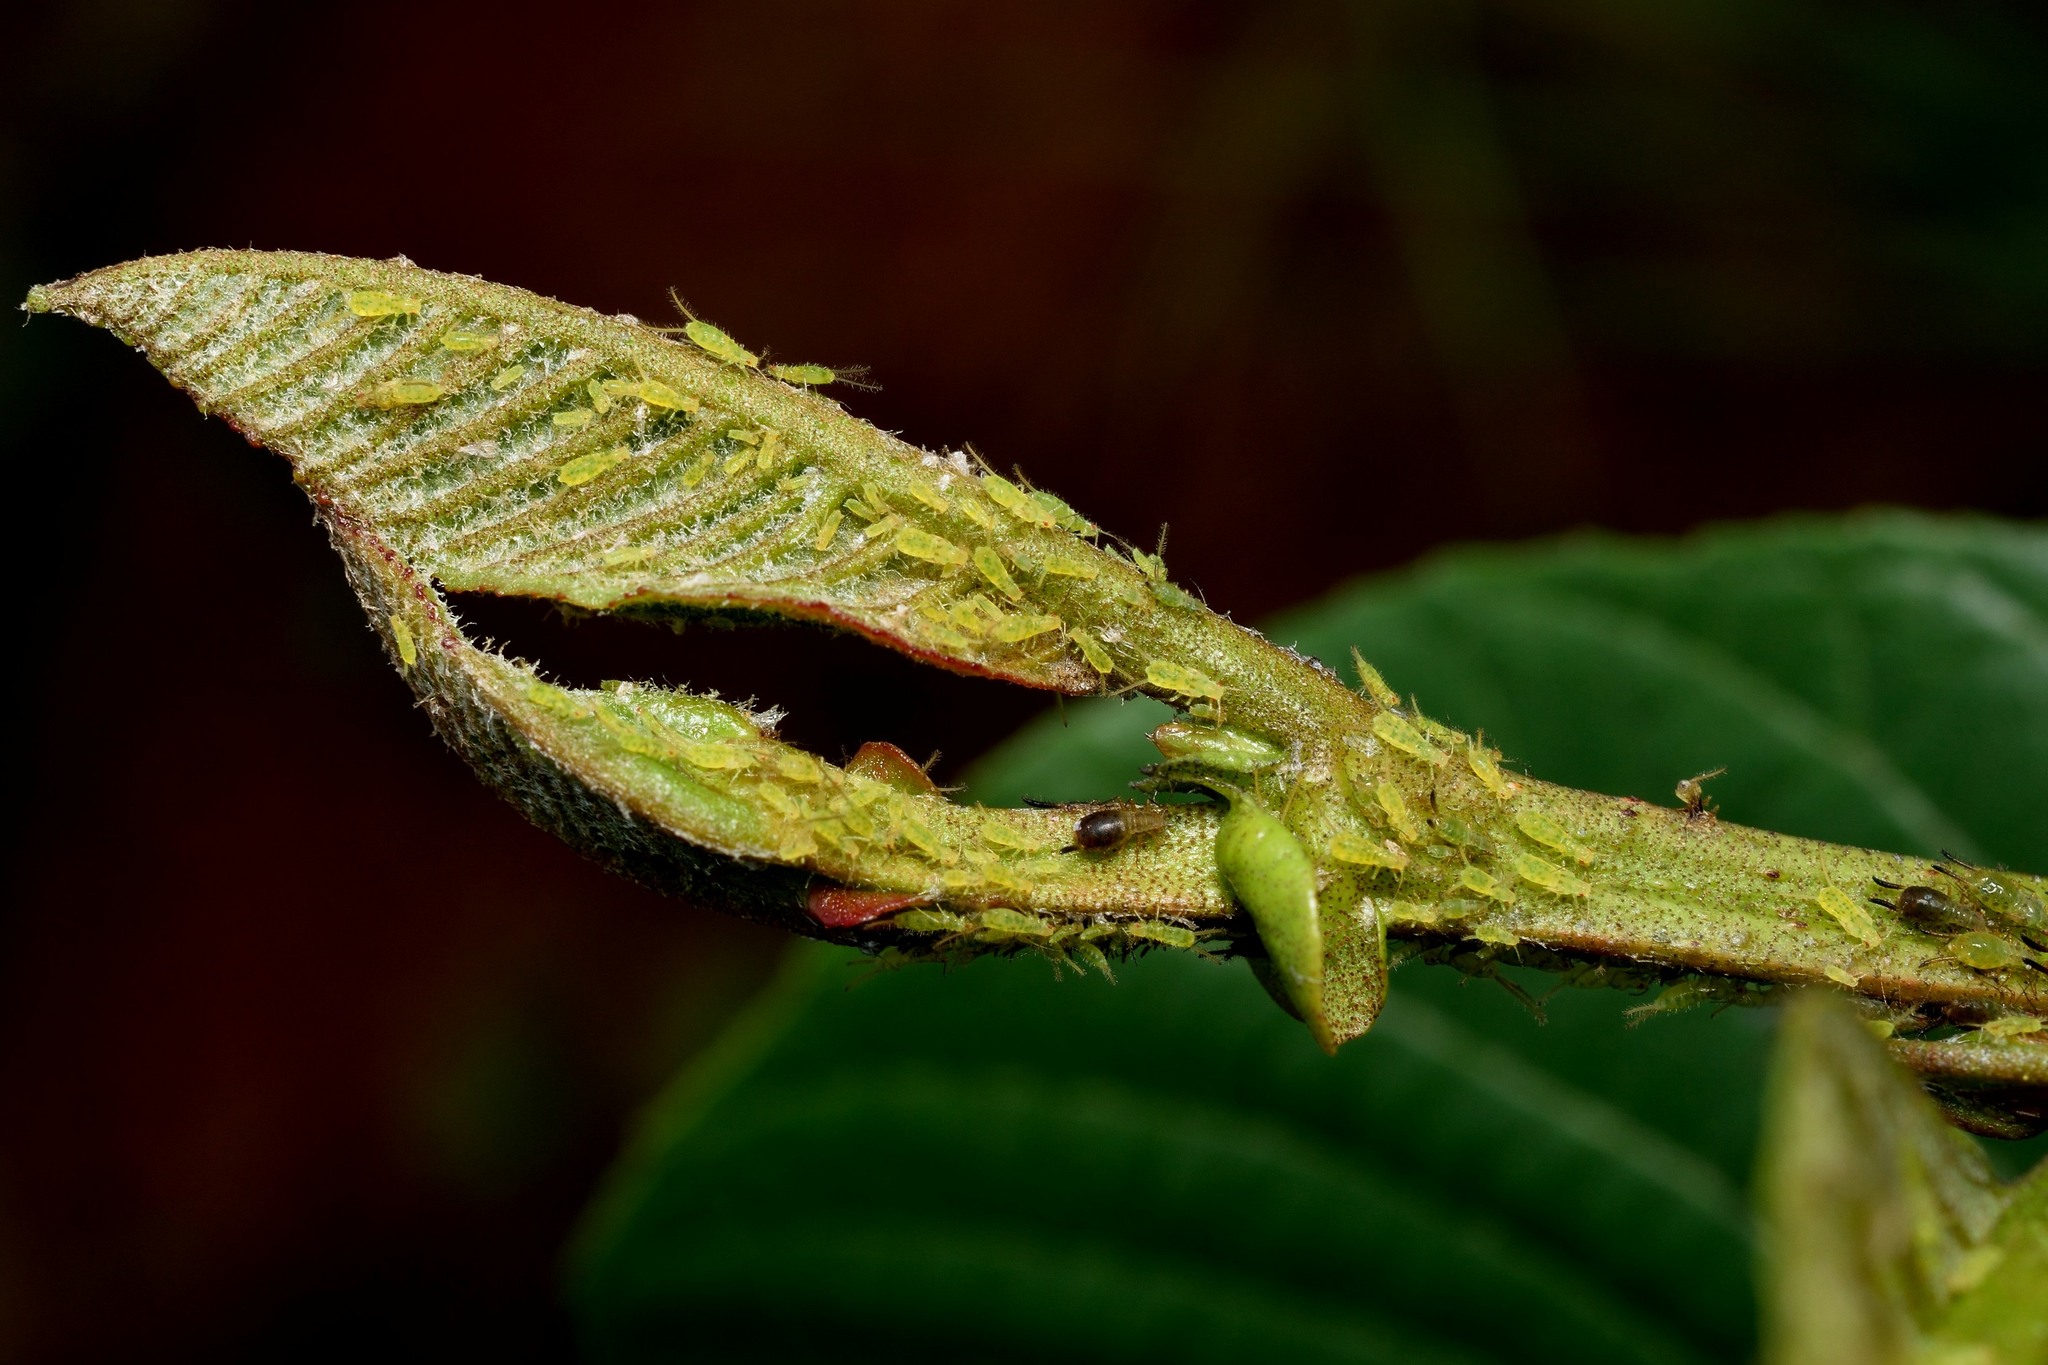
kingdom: Animalia
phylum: Arthropoda
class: Insecta
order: Hemiptera
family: Aphididae
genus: Greenidea
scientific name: Greenidea
